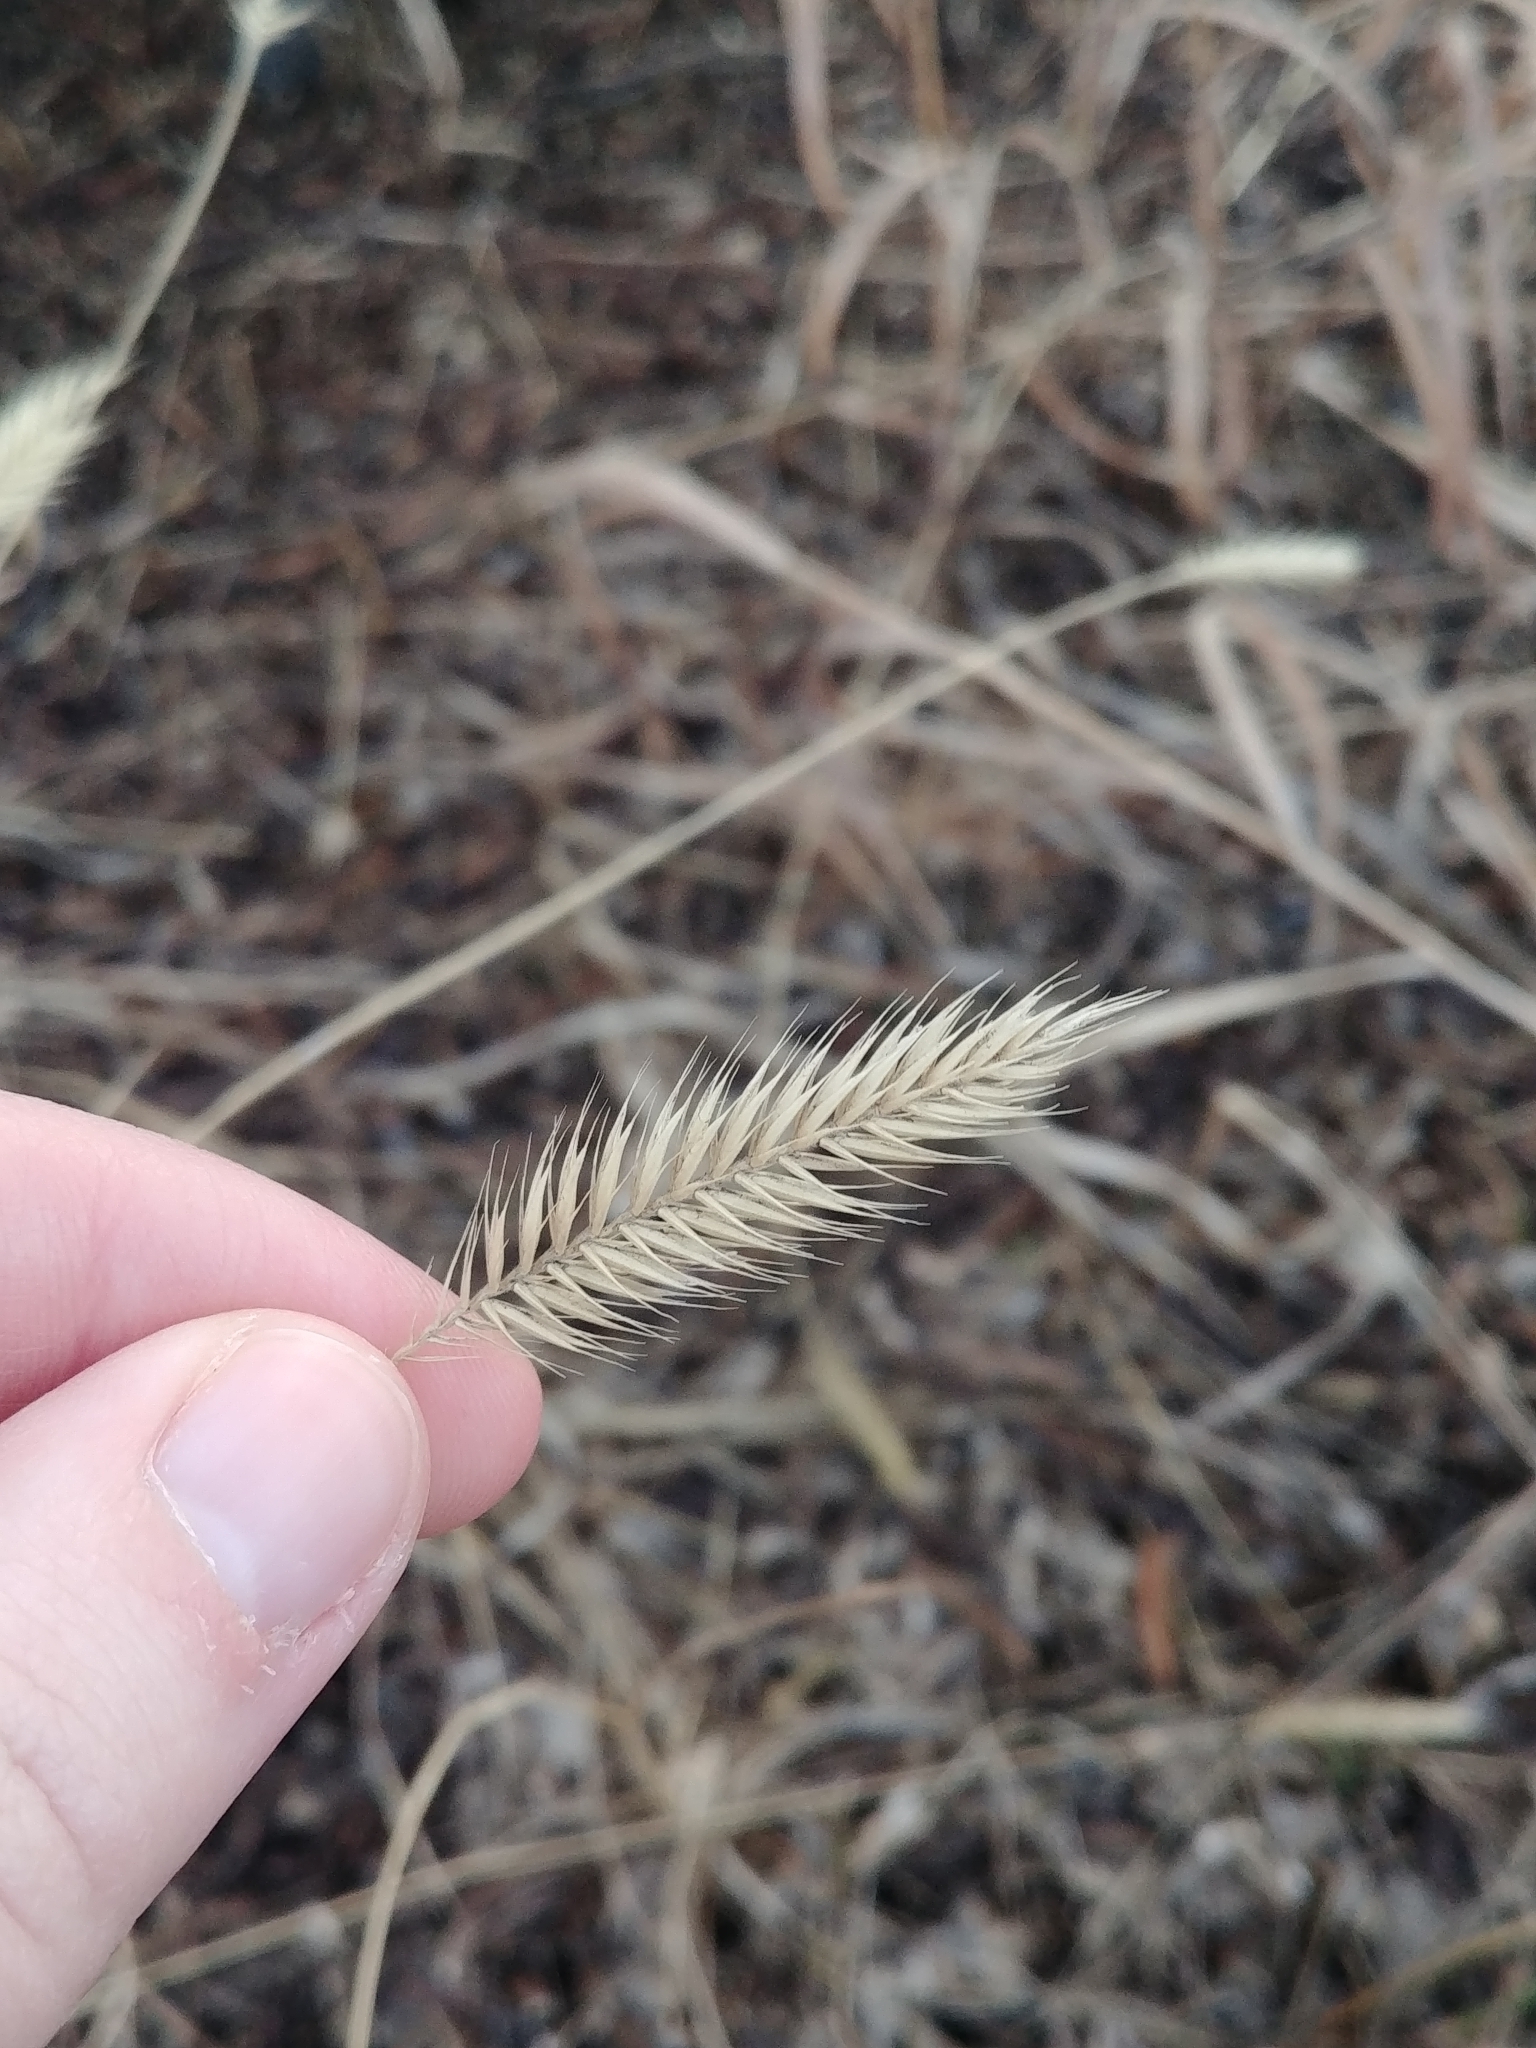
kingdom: Plantae
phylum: Tracheophyta
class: Liliopsida
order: Poales
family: Poaceae
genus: Agropyron
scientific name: Agropyron cristatum
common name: Crested wheatgrass
